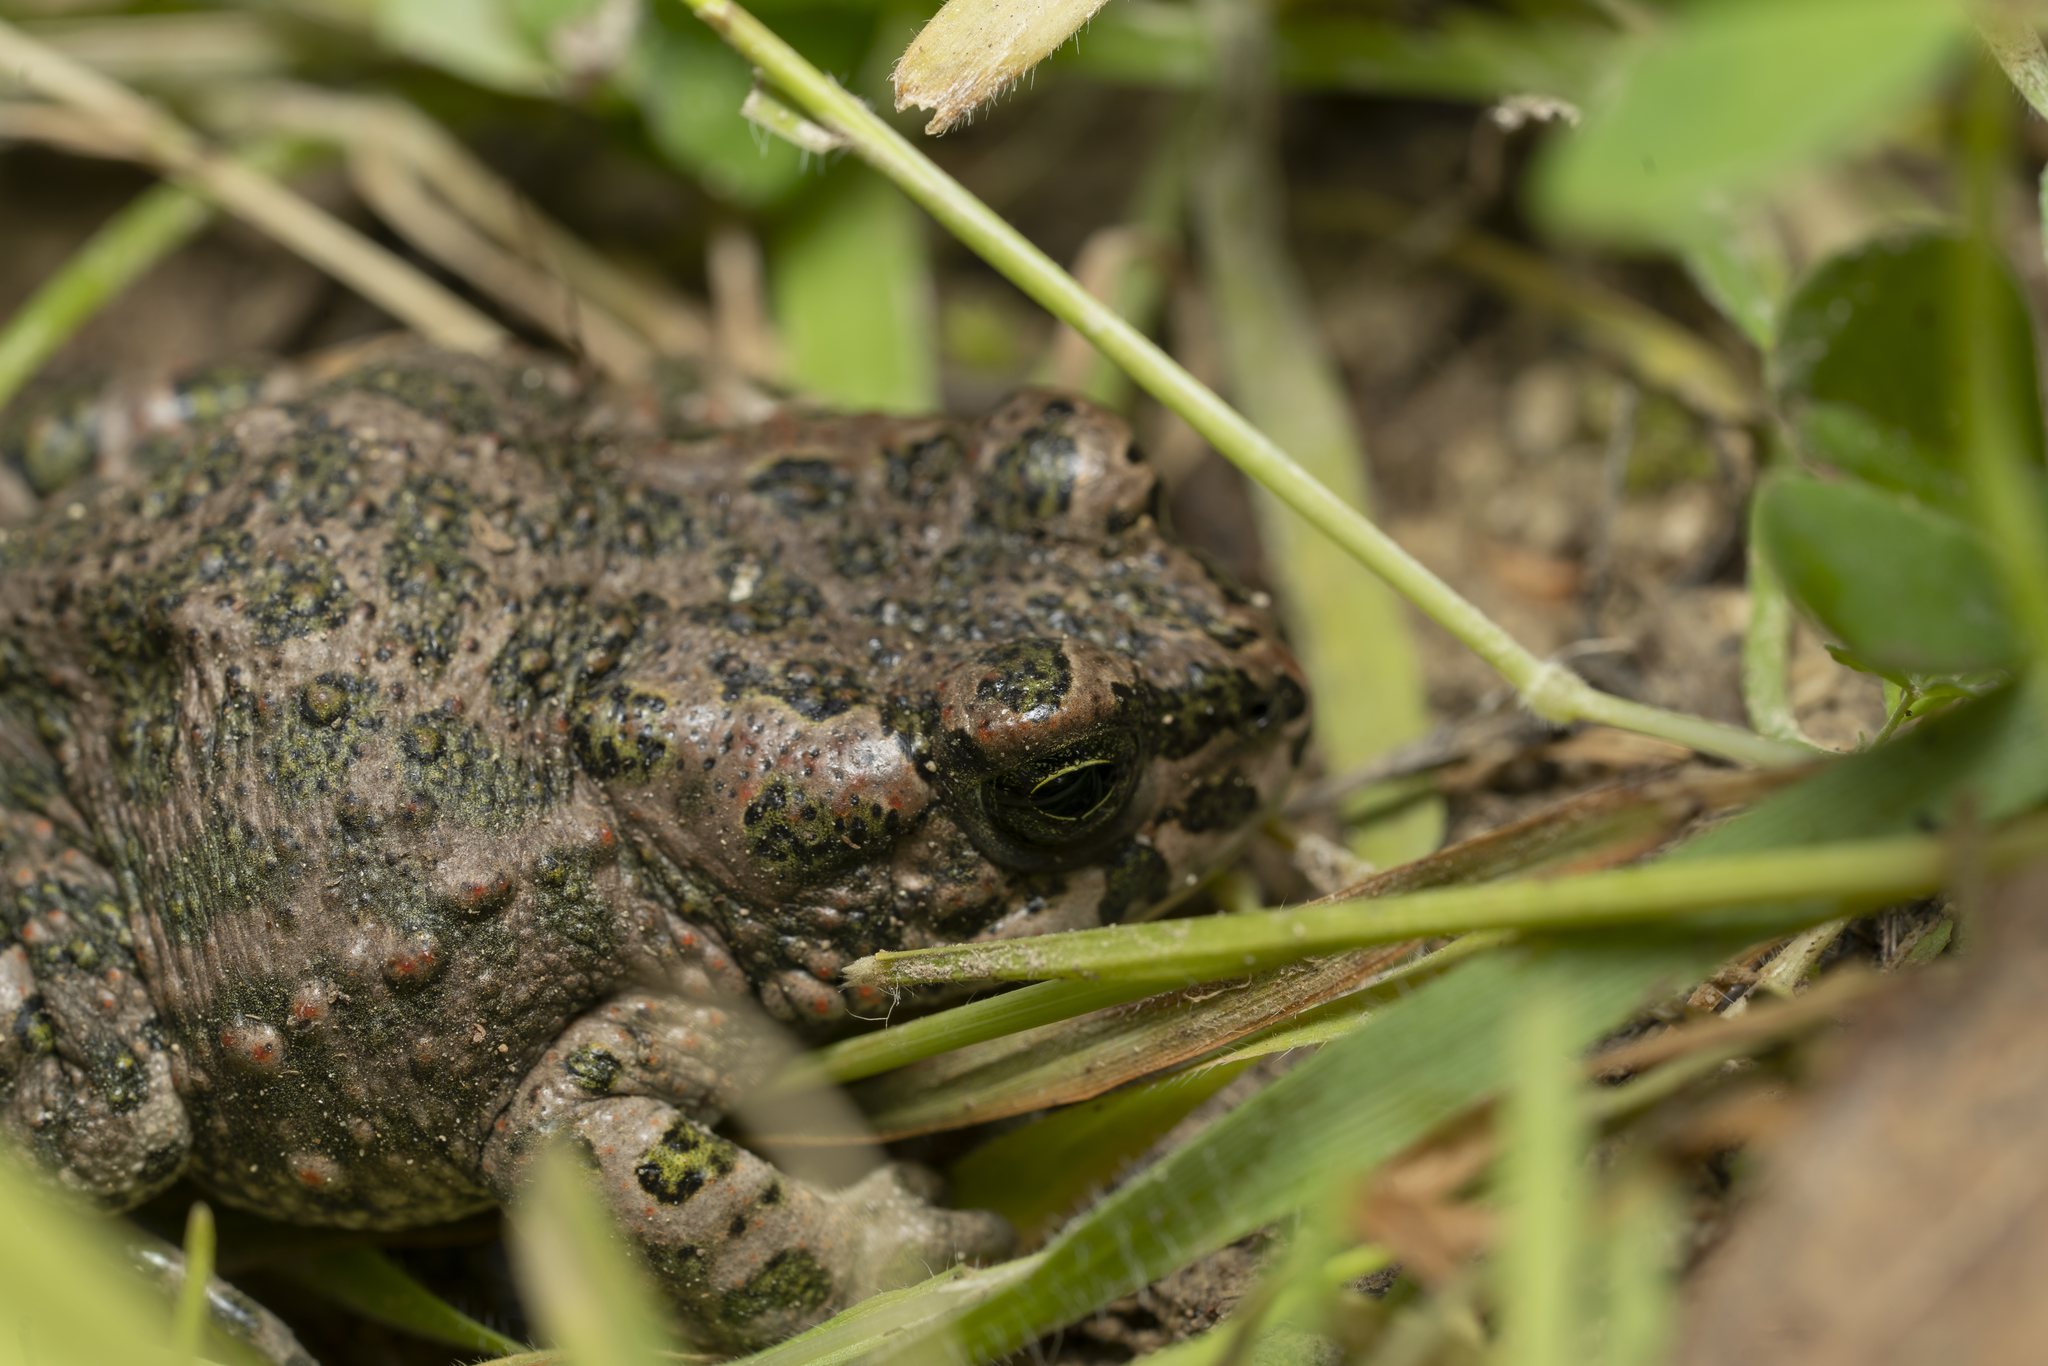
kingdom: Animalia
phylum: Chordata
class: Amphibia
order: Anura
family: Bufonidae
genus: Bufotes
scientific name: Bufotes viridis
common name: European green toad
